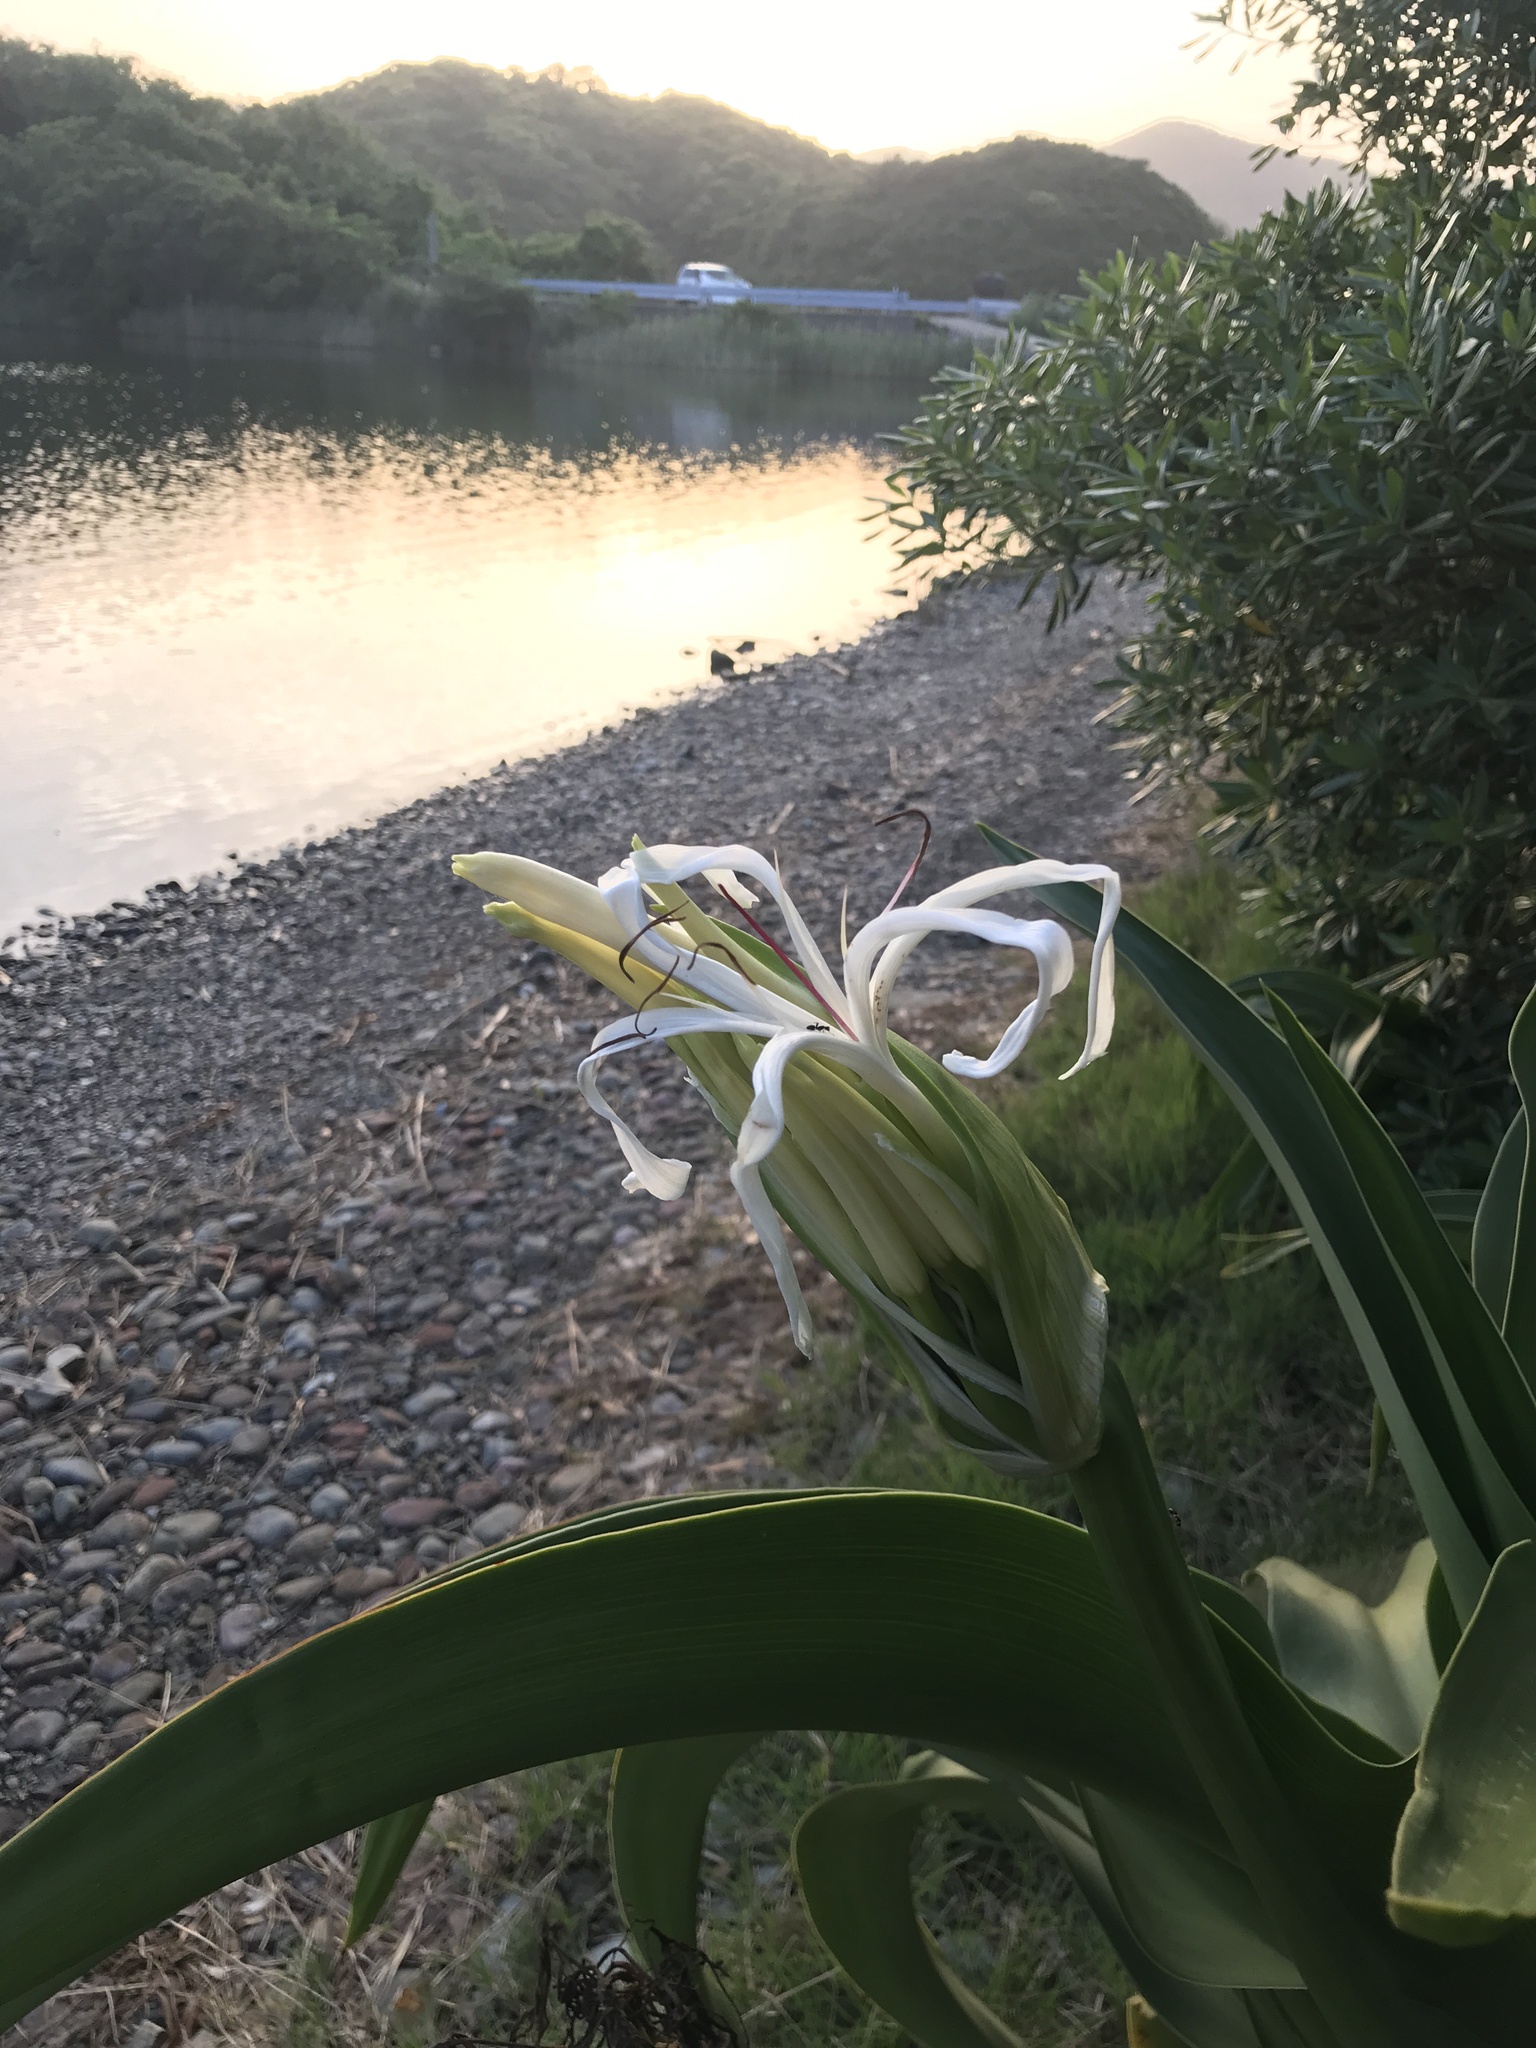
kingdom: Plantae
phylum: Tracheophyta
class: Liliopsida
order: Asparagales
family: Amaryllidaceae
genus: Crinum
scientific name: Crinum asiaticum
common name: Poisonbulb
